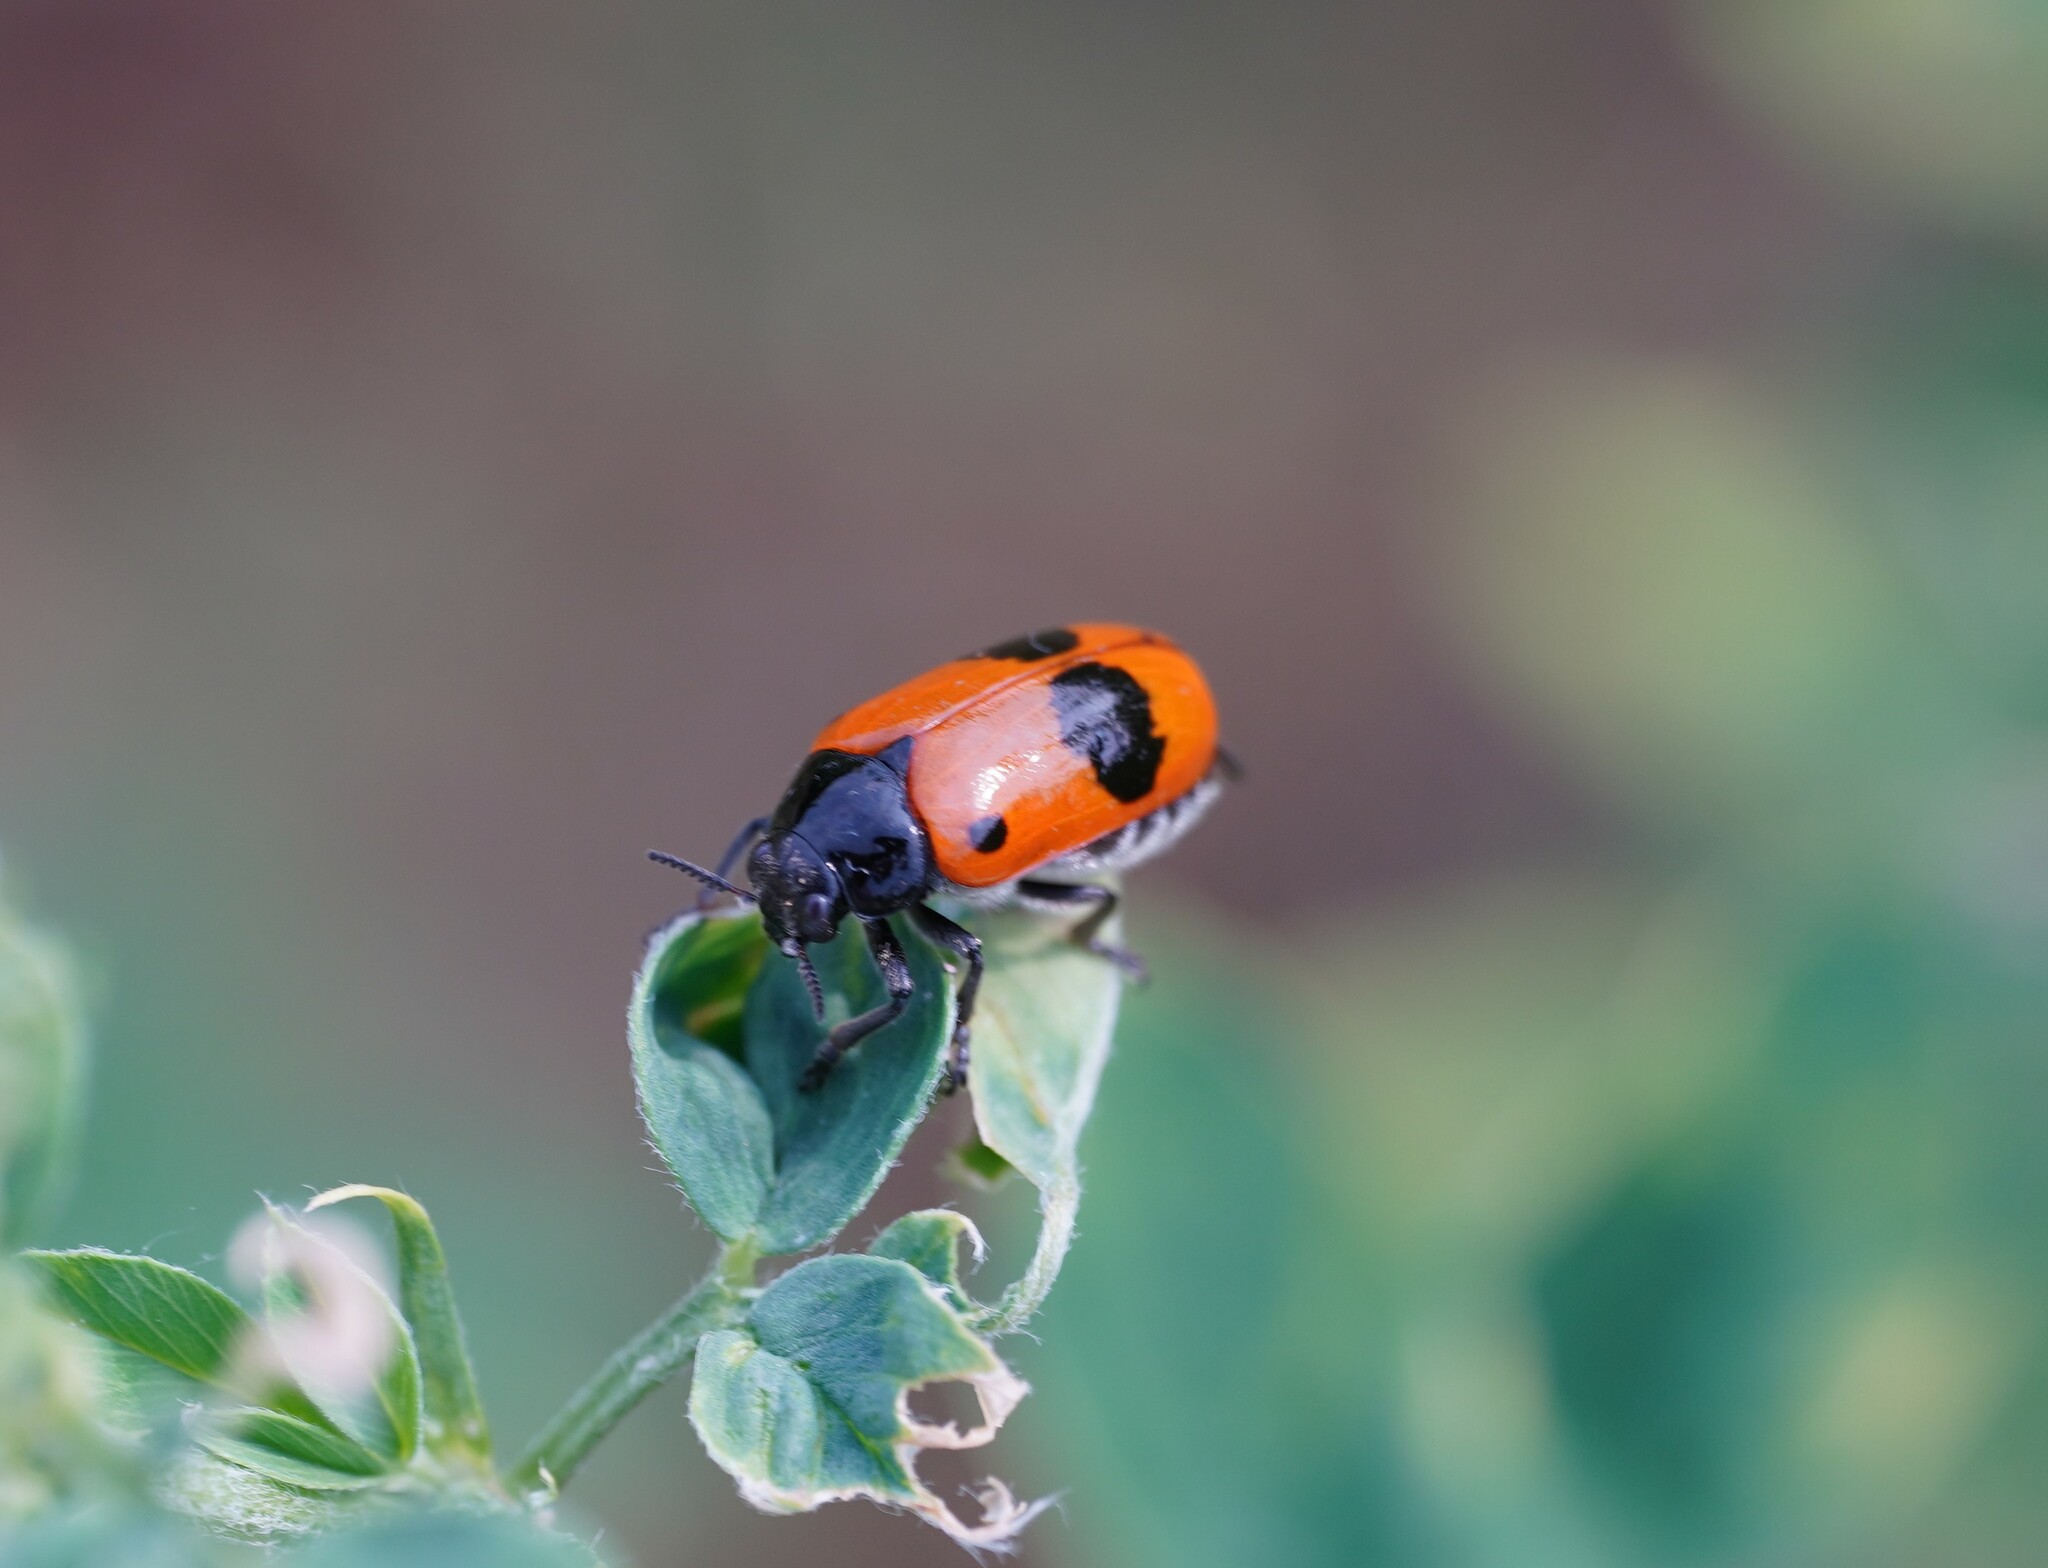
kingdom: Animalia
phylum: Arthropoda
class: Insecta
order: Coleoptera
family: Chrysomelidae
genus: Clytra
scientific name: Clytra laeviuscula
